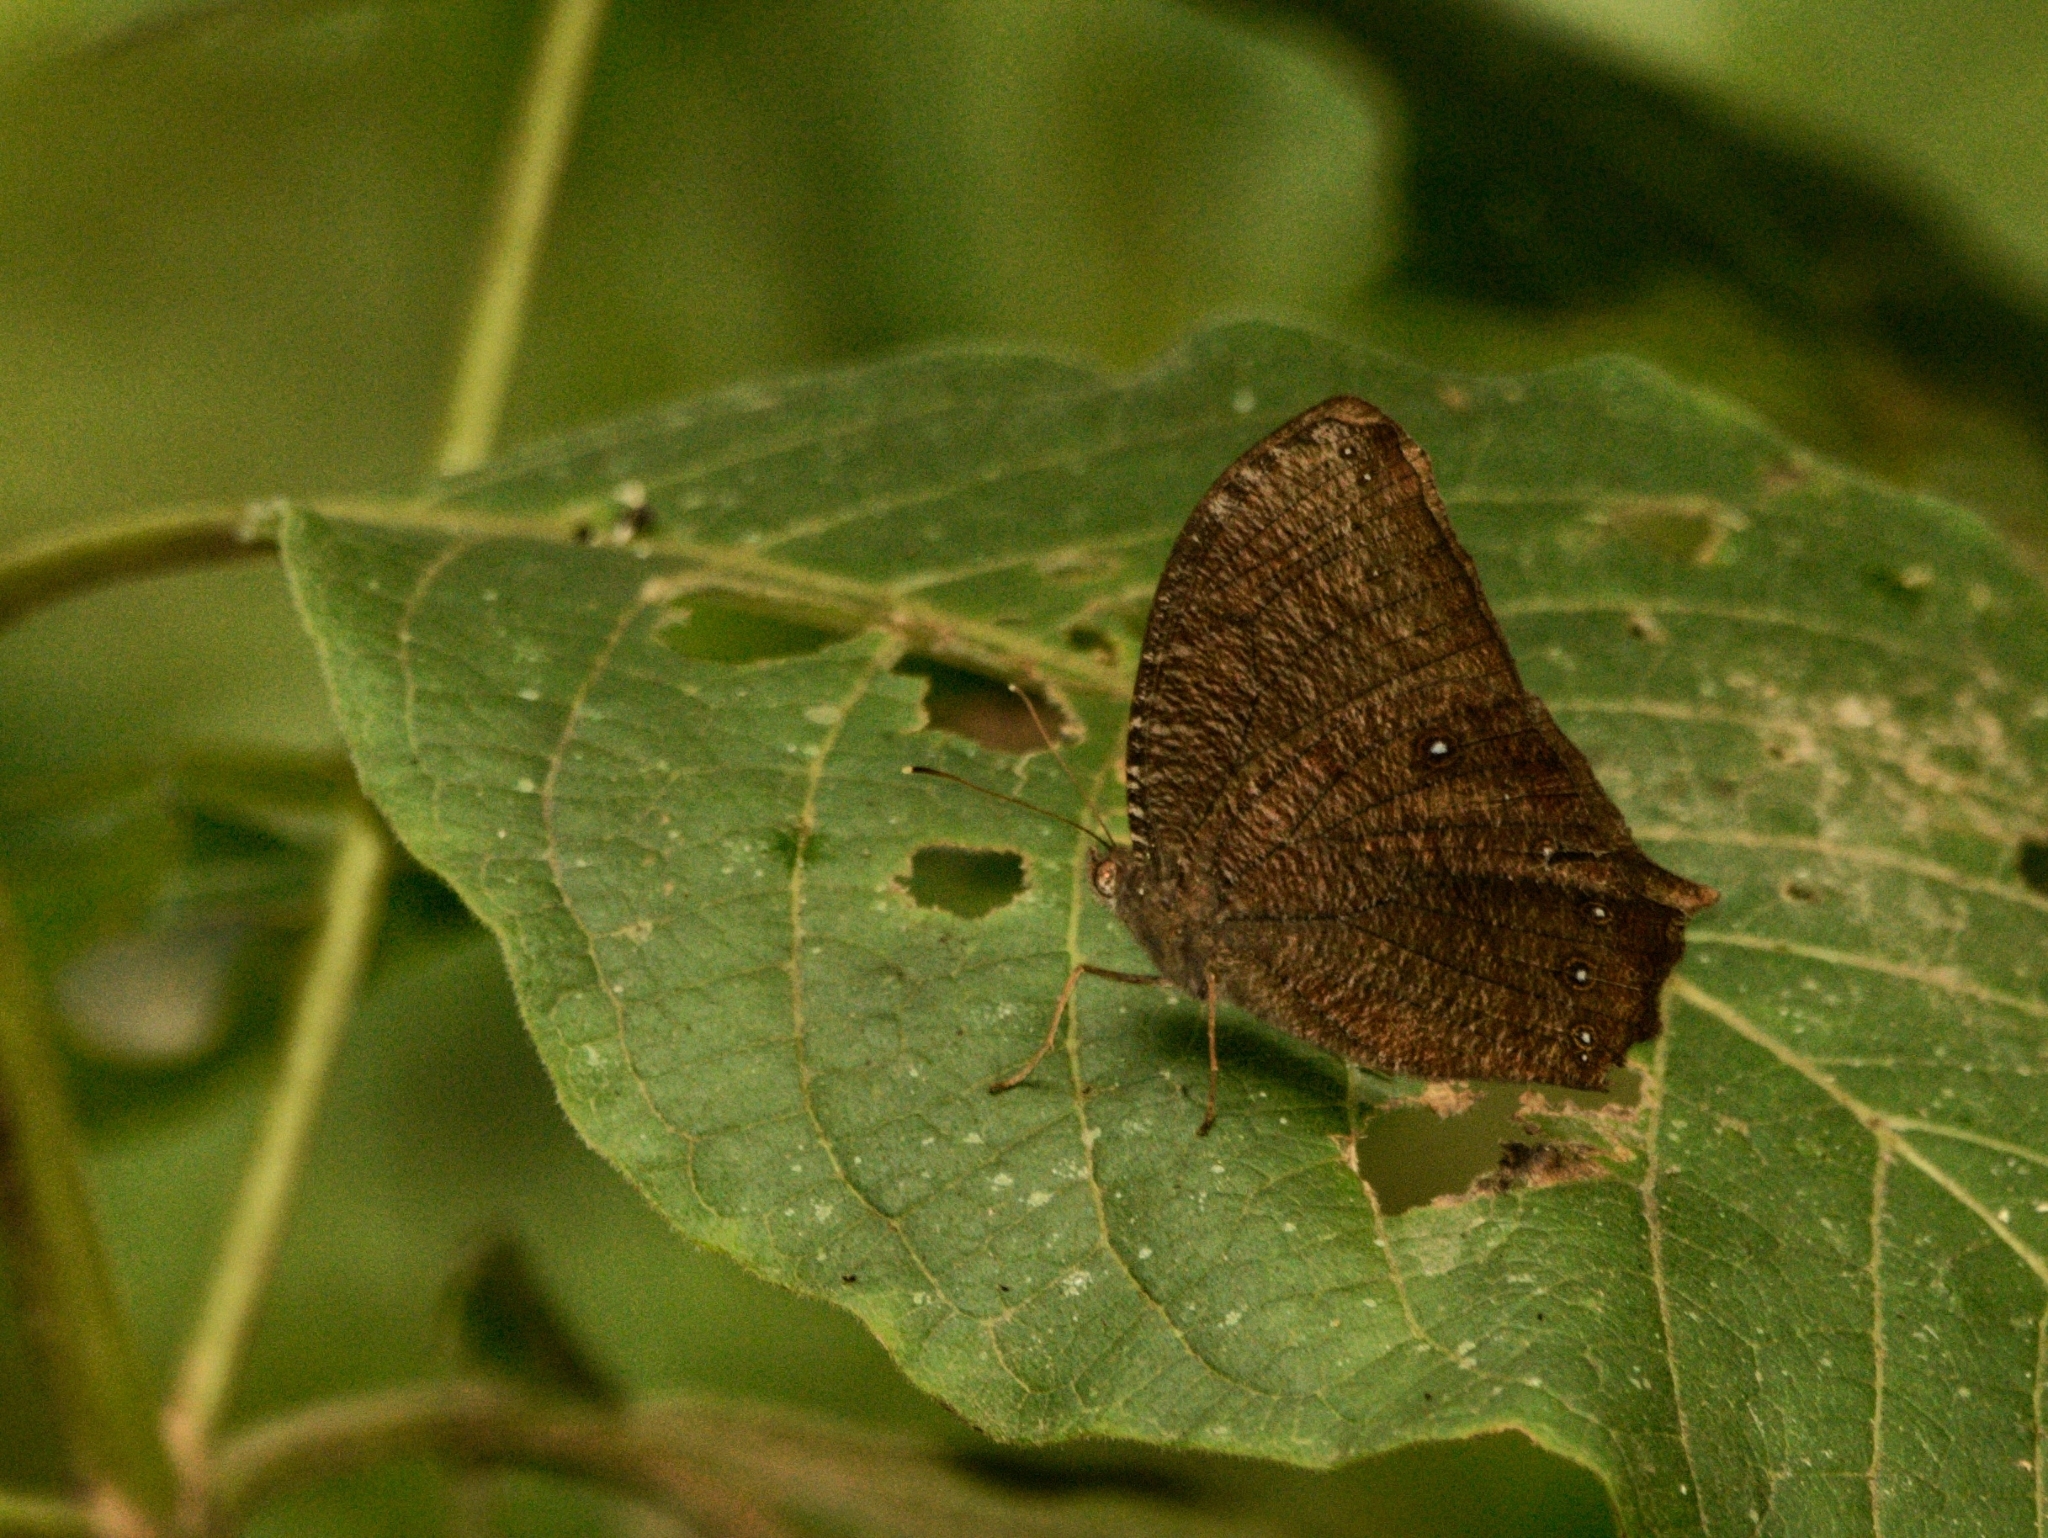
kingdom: Animalia
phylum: Arthropoda
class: Insecta
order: Lepidoptera
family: Nymphalidae
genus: Melanitis
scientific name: Melanitis phedima
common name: Dark evening brown
